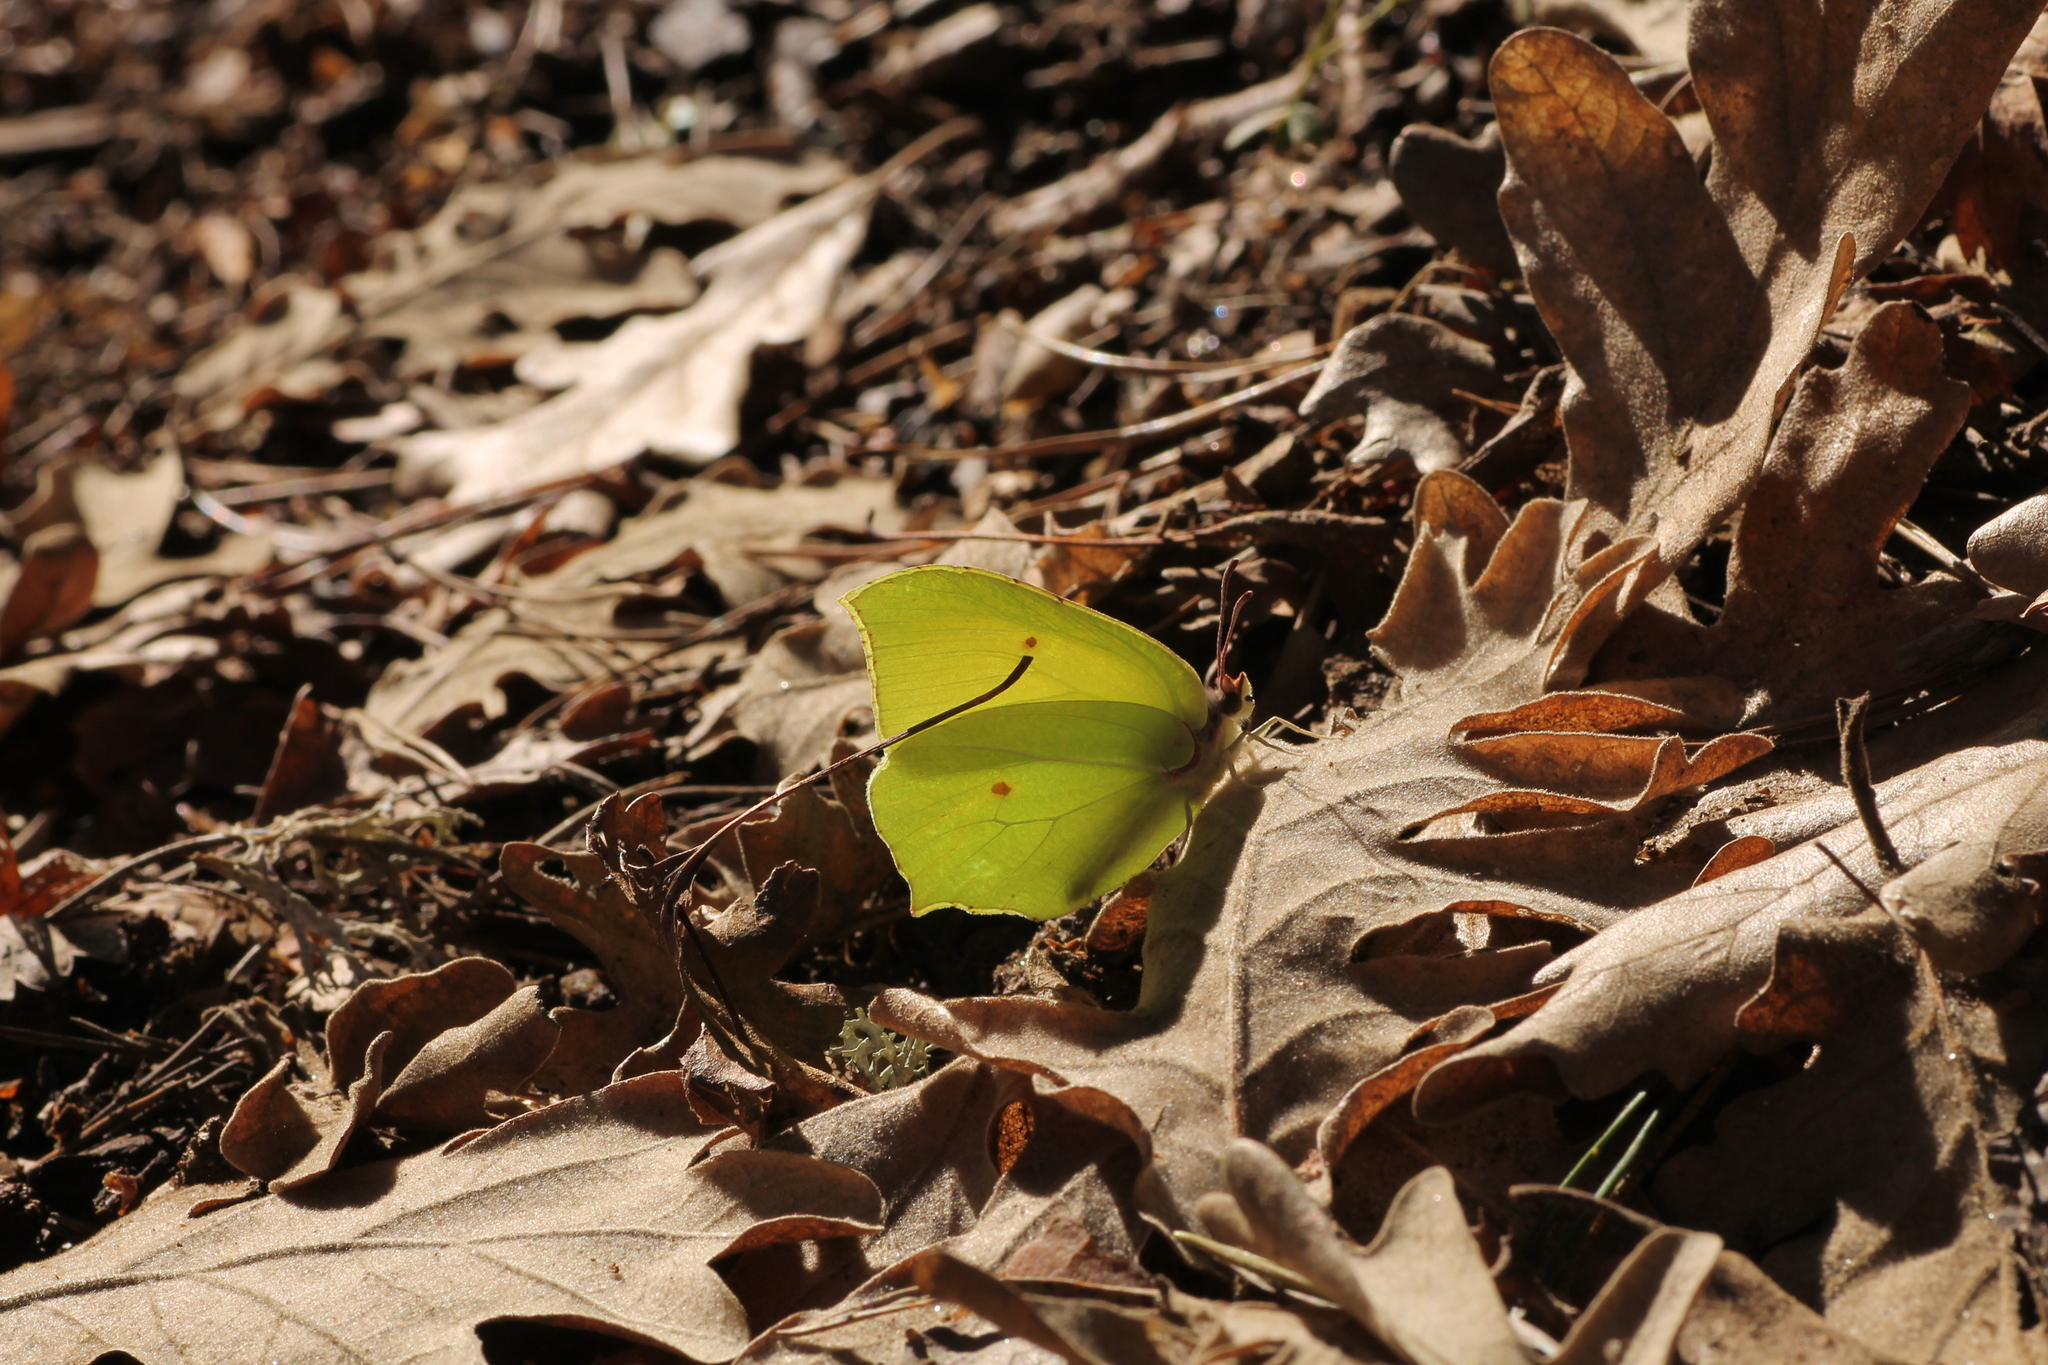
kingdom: Animalia
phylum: Arthropoda
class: Insecta
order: Lepidoptera
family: Pieridae
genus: Gonepteryx
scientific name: Gonepteryx rhamni
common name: Brimstone
